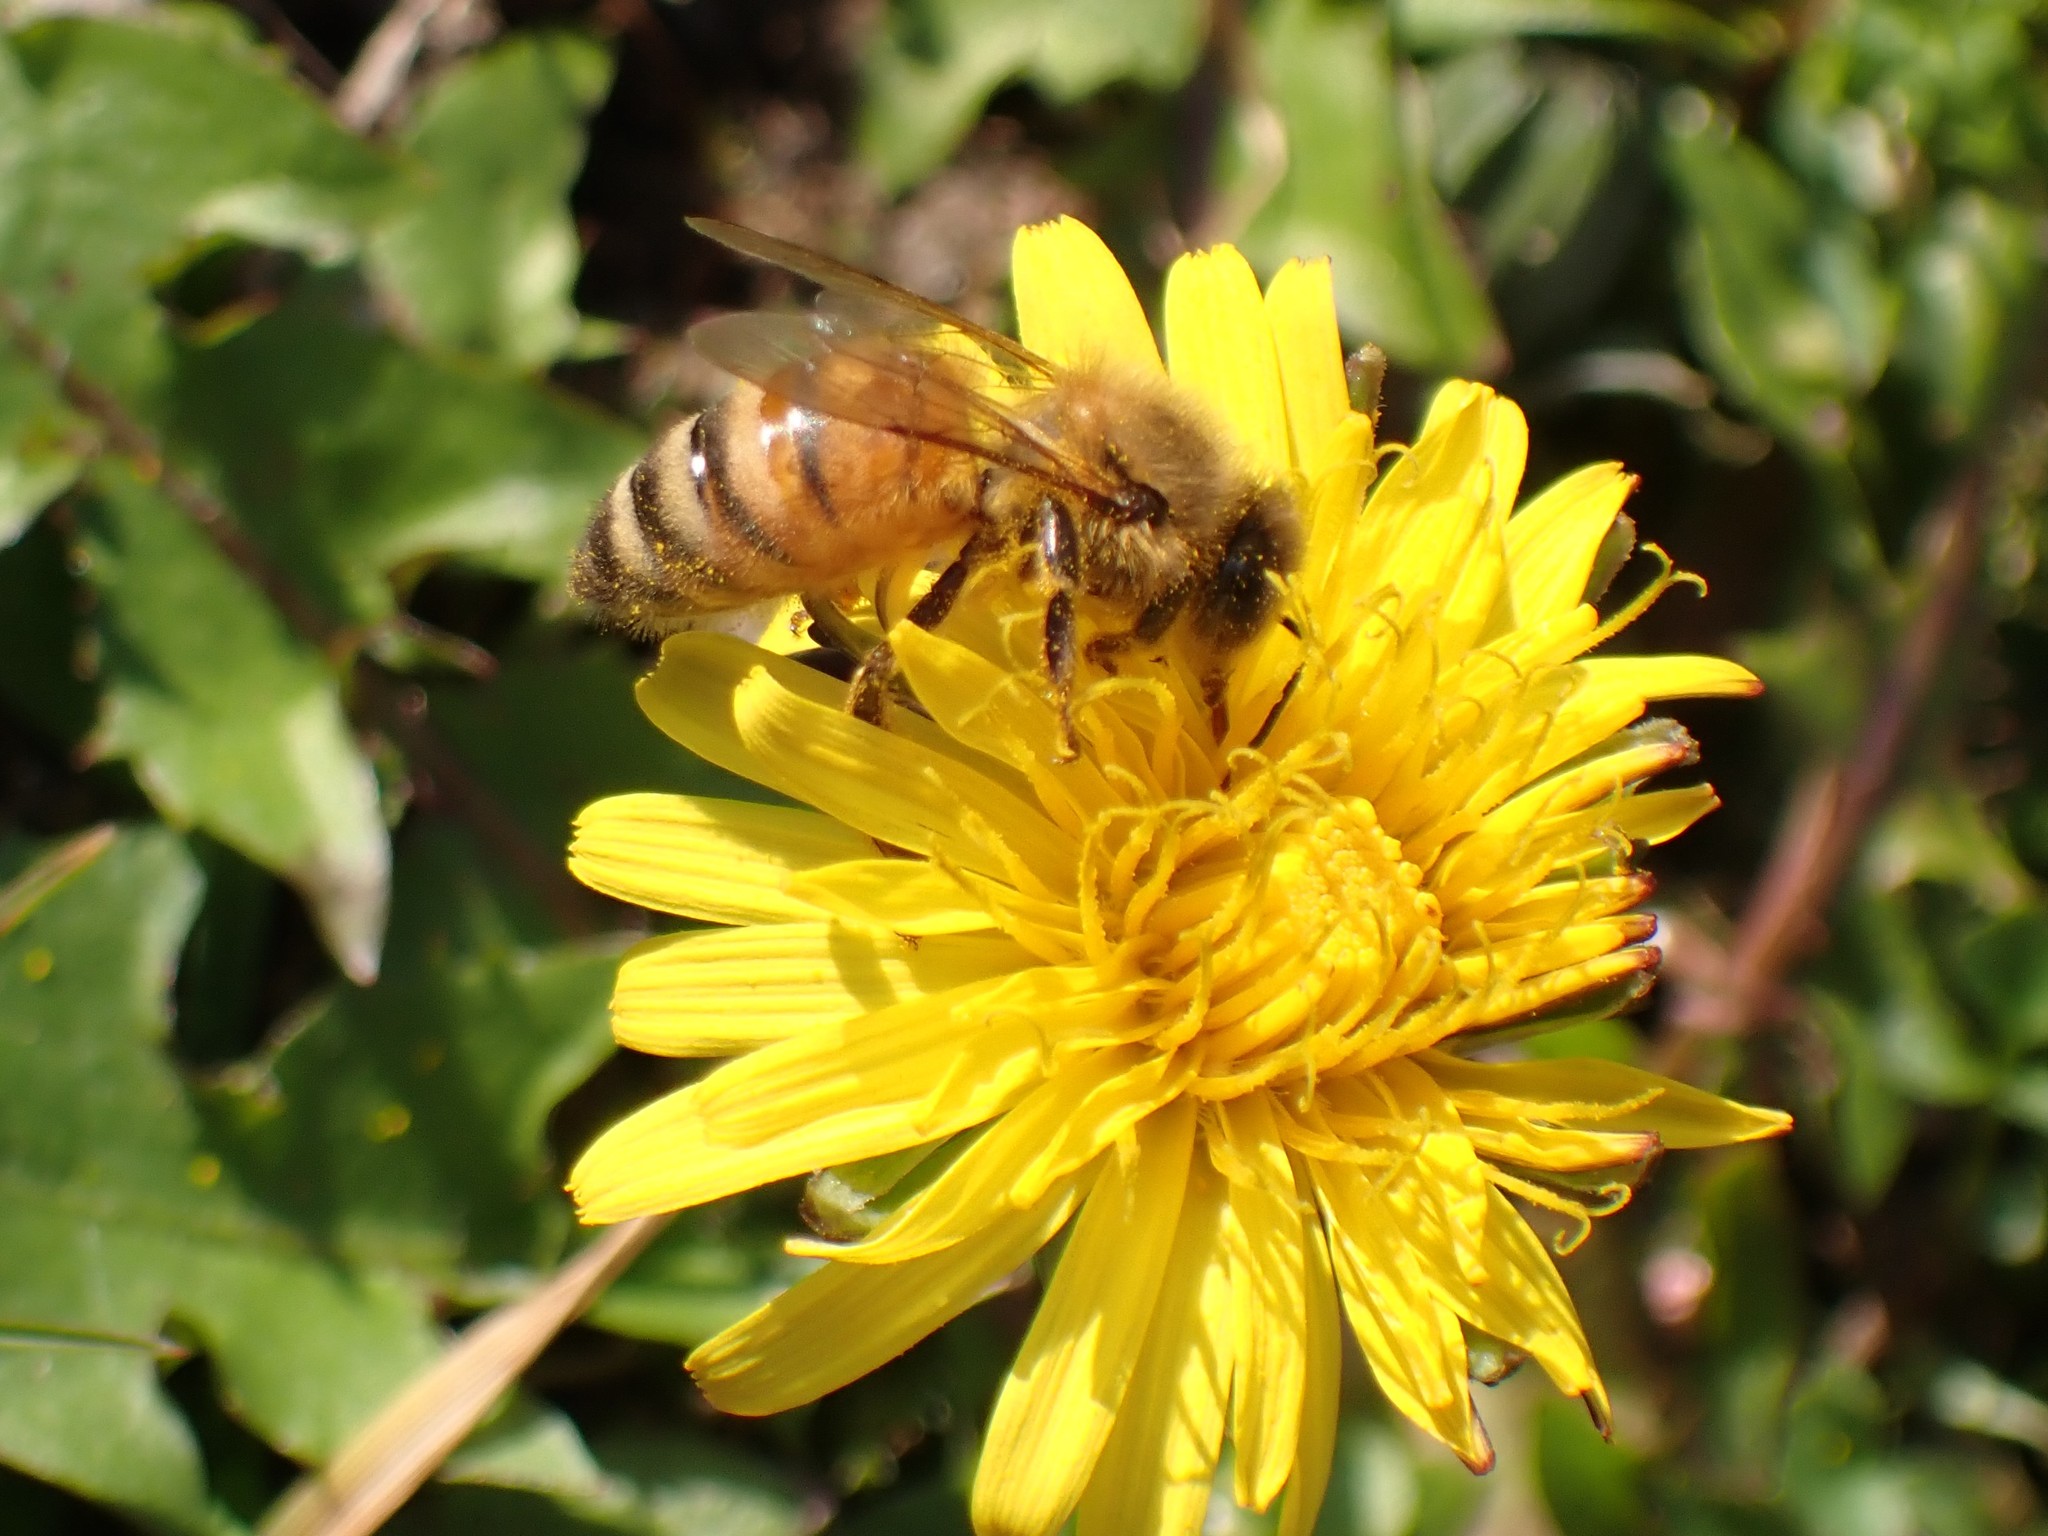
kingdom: Animalia
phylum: Arthropoda
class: Insecta
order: Hymenoptera
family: Apidae
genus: Apis
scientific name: Apis mellifera
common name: Honey bee
